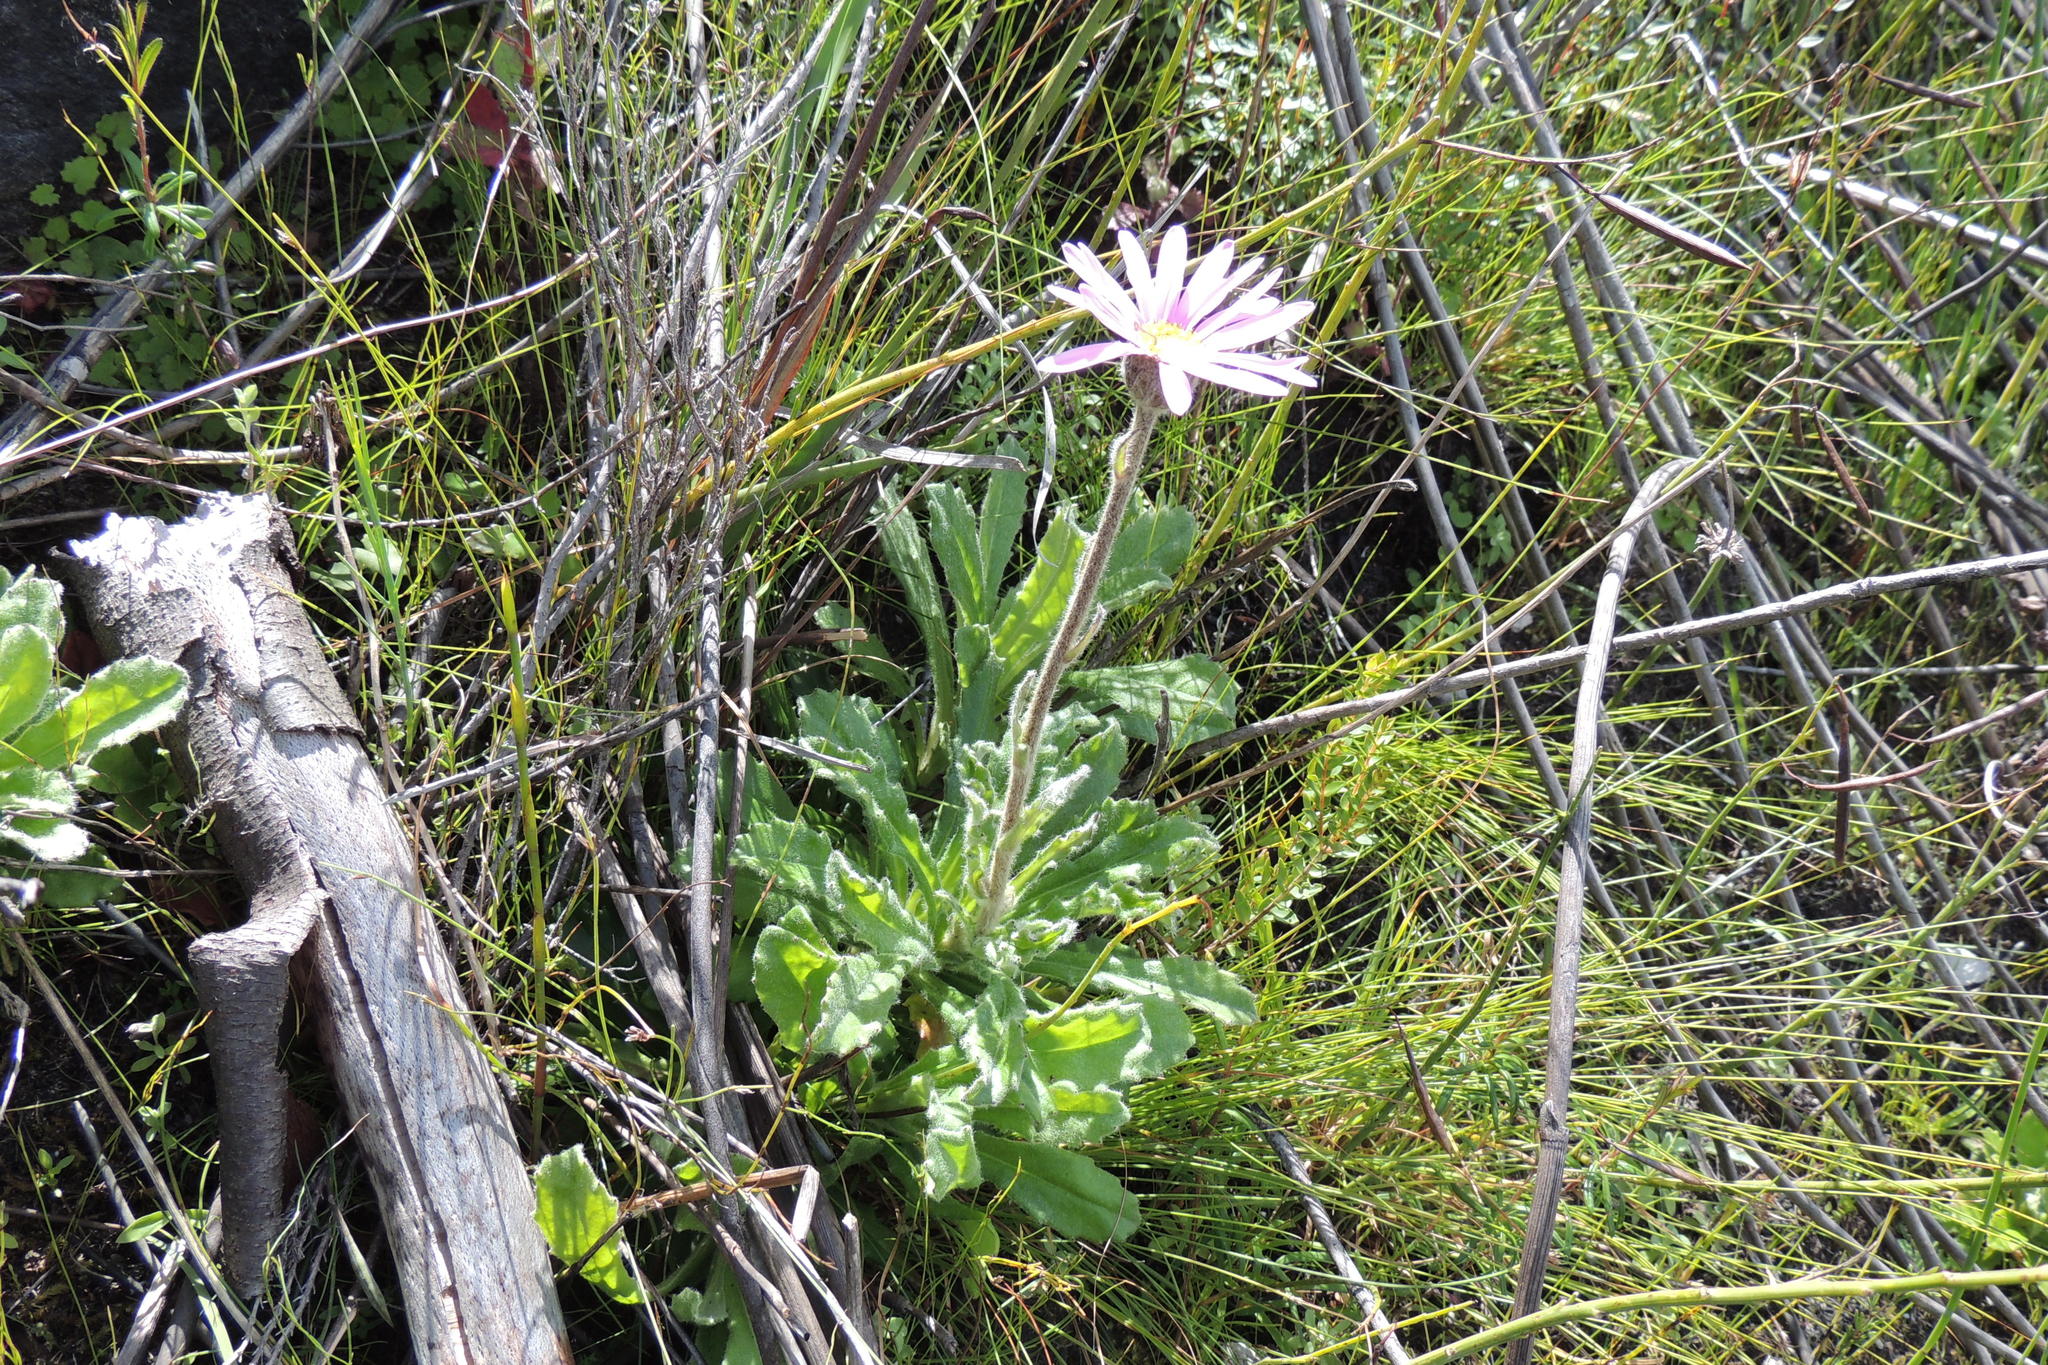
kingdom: Plantae
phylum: Tracheophyta
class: Magnoliopsida
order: Asterales
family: Asteraceae
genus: Mairia
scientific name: Mairia purpurata
